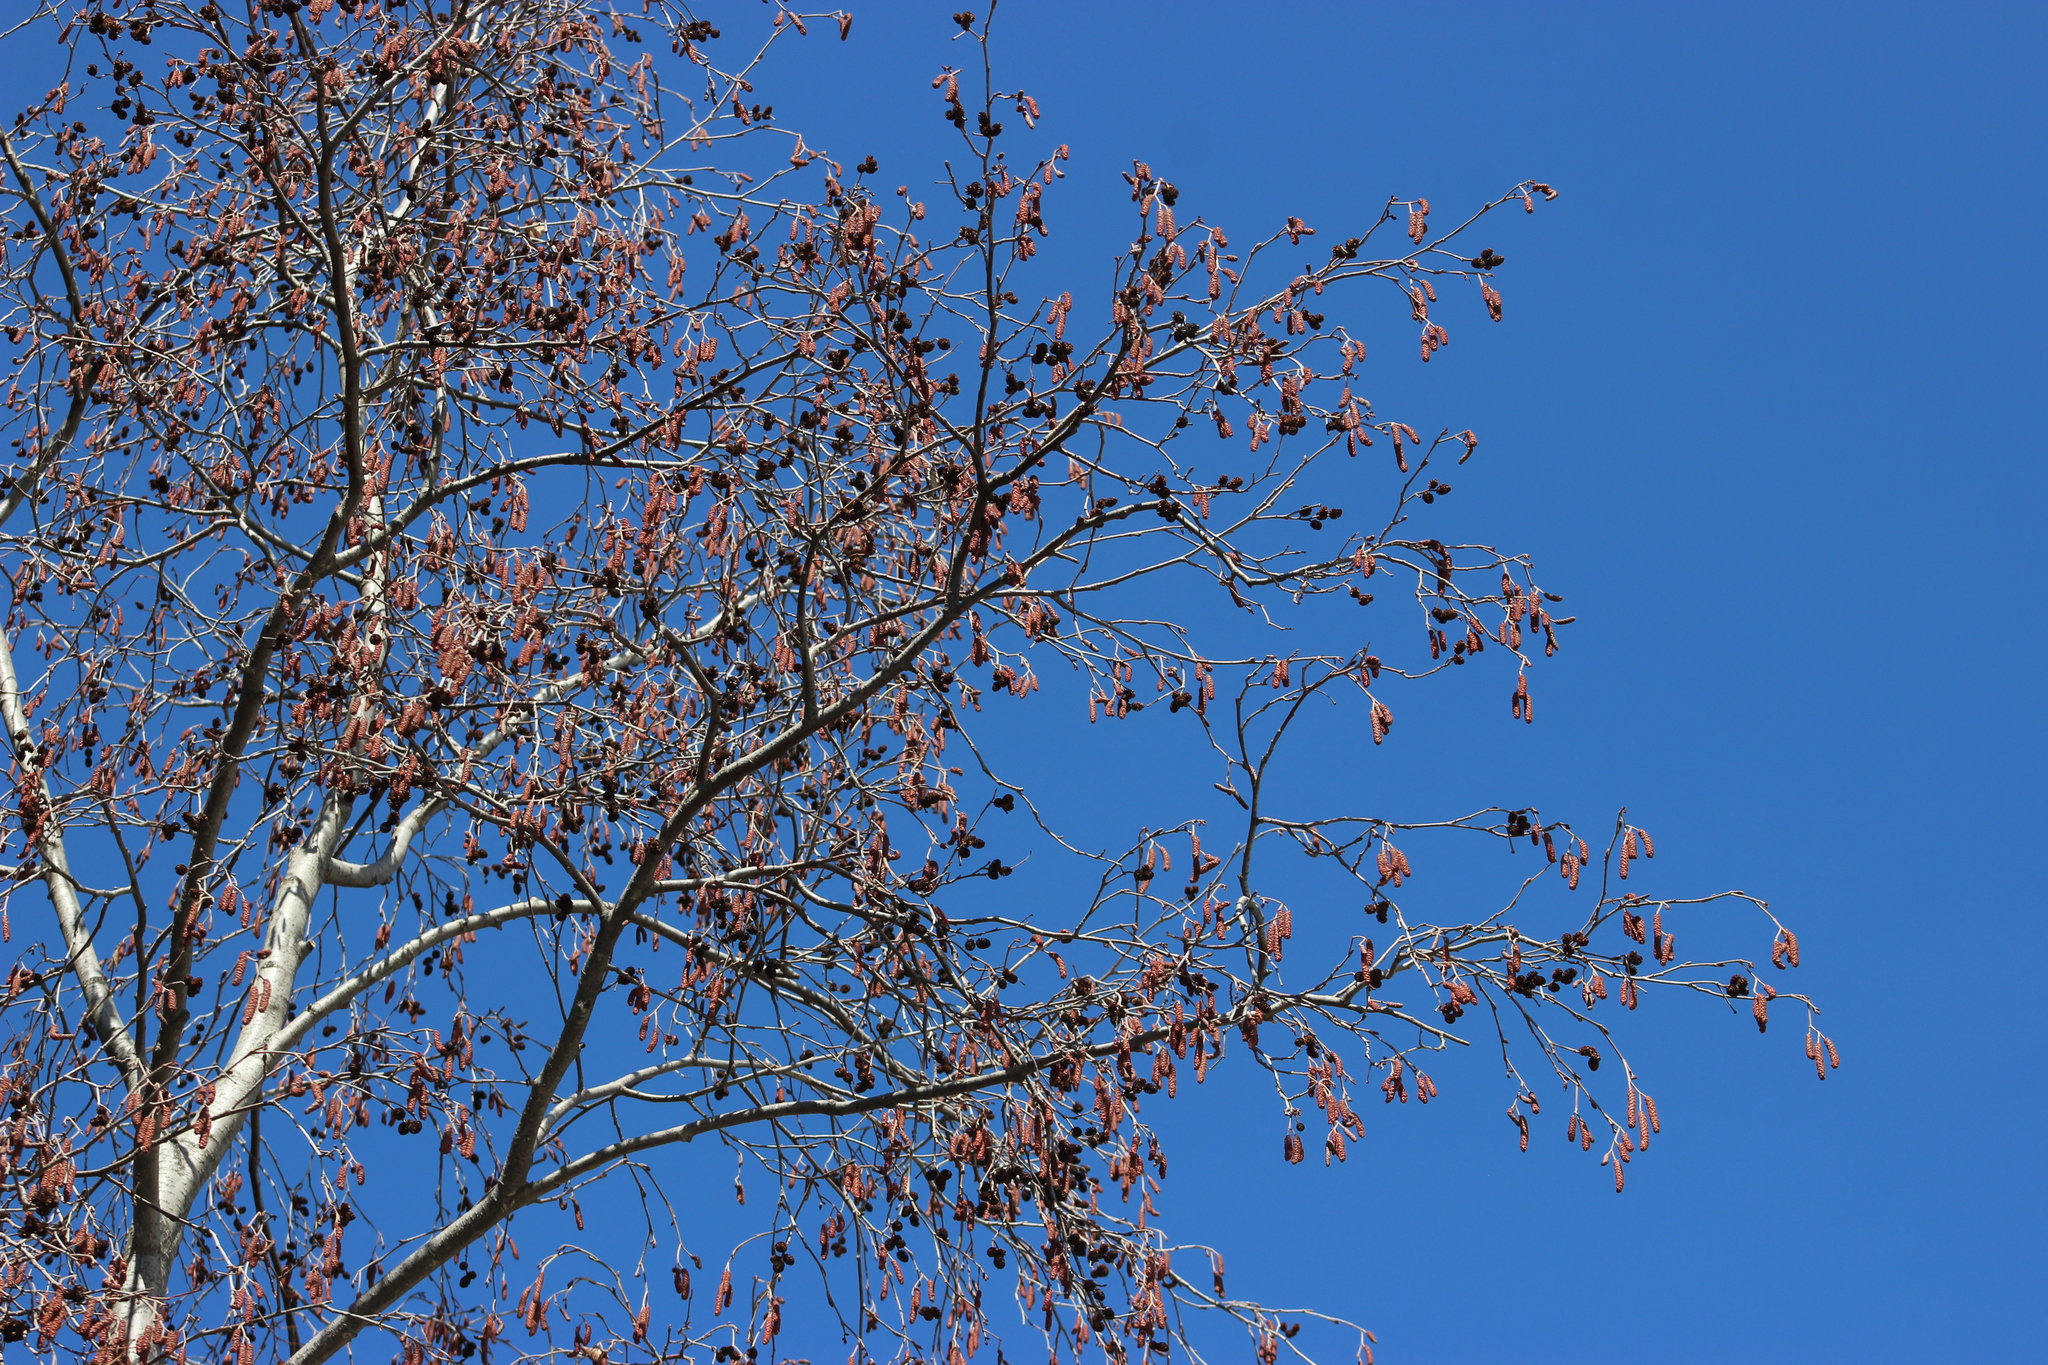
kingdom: Plantae
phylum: Tracheophyta
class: Magnoliopsida
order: Fagales
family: Betulaceae
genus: Alnus
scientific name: Alnus incana
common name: Grey alder
